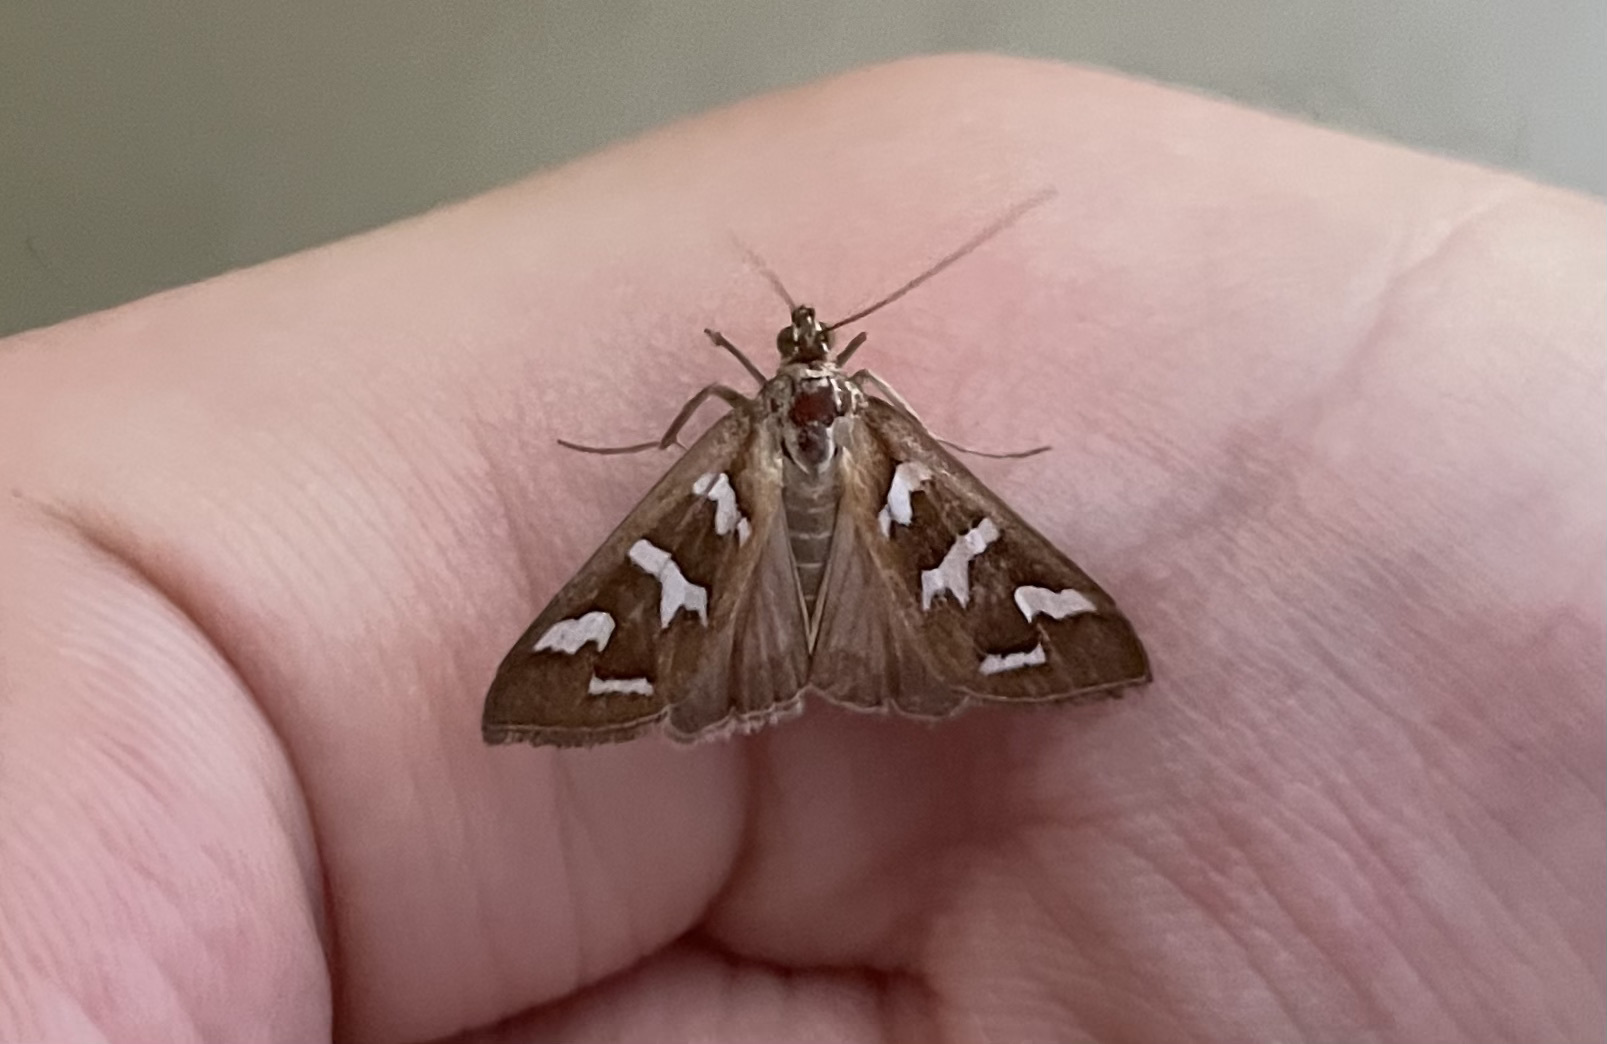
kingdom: Animalia
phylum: Arthropoda
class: Insecta
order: Lepidoptera
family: Crambidae
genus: Diastictis
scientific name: Diastictis fracturalis
